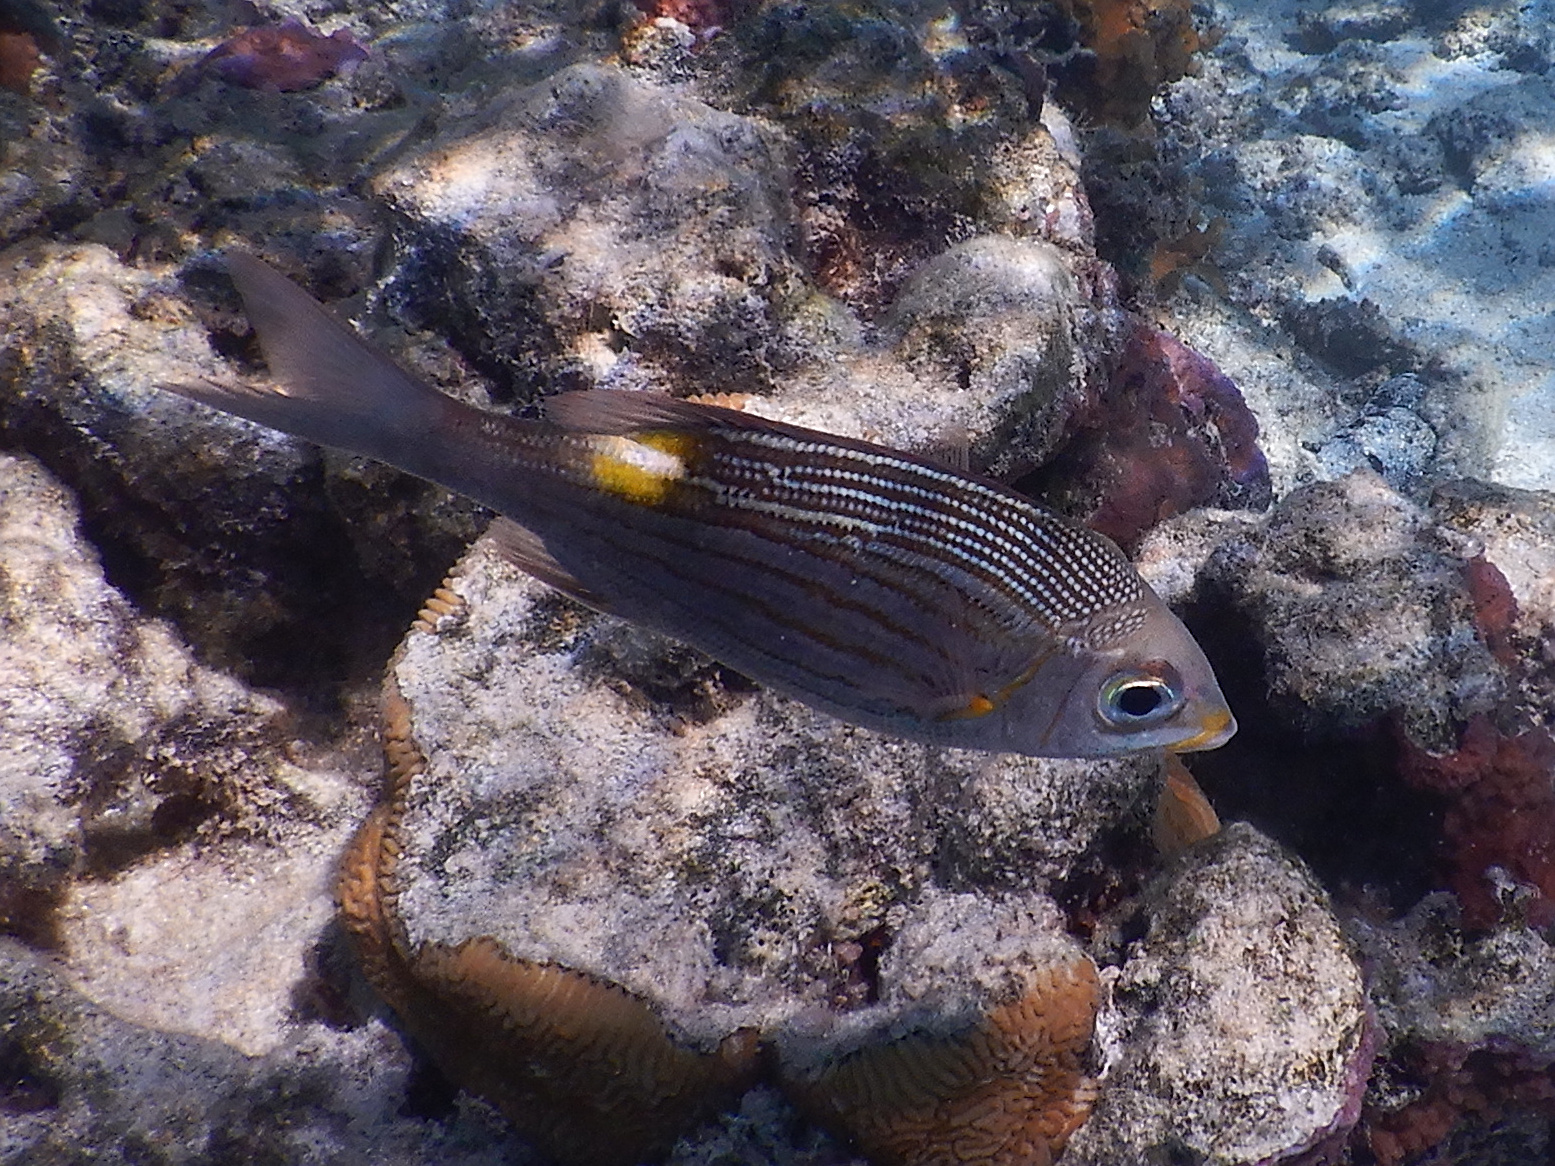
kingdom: Animalia
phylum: Chordata
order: Perciformes
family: Lethrinidae
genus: Gnathodentex
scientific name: Gnathodentex aureolineatus
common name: Gold-lined sea bream
